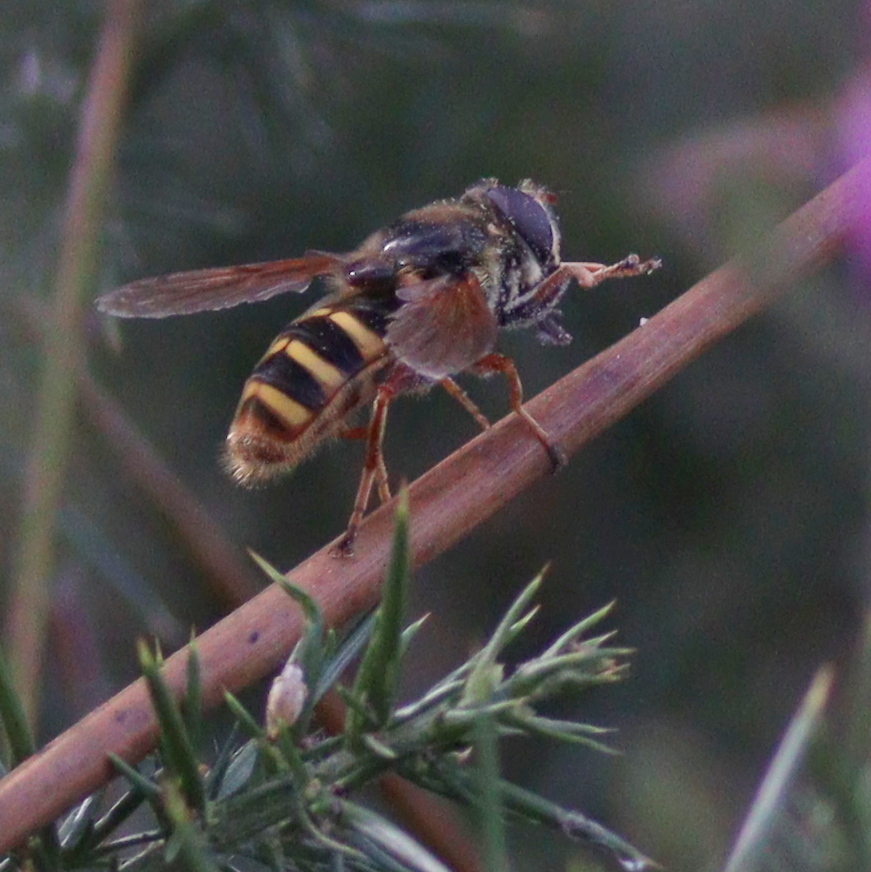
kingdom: Animalia
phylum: Arthropoda
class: Insecta
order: Diptera
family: Syrphidae
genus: Sericomyia
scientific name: Sericomyia silentis
